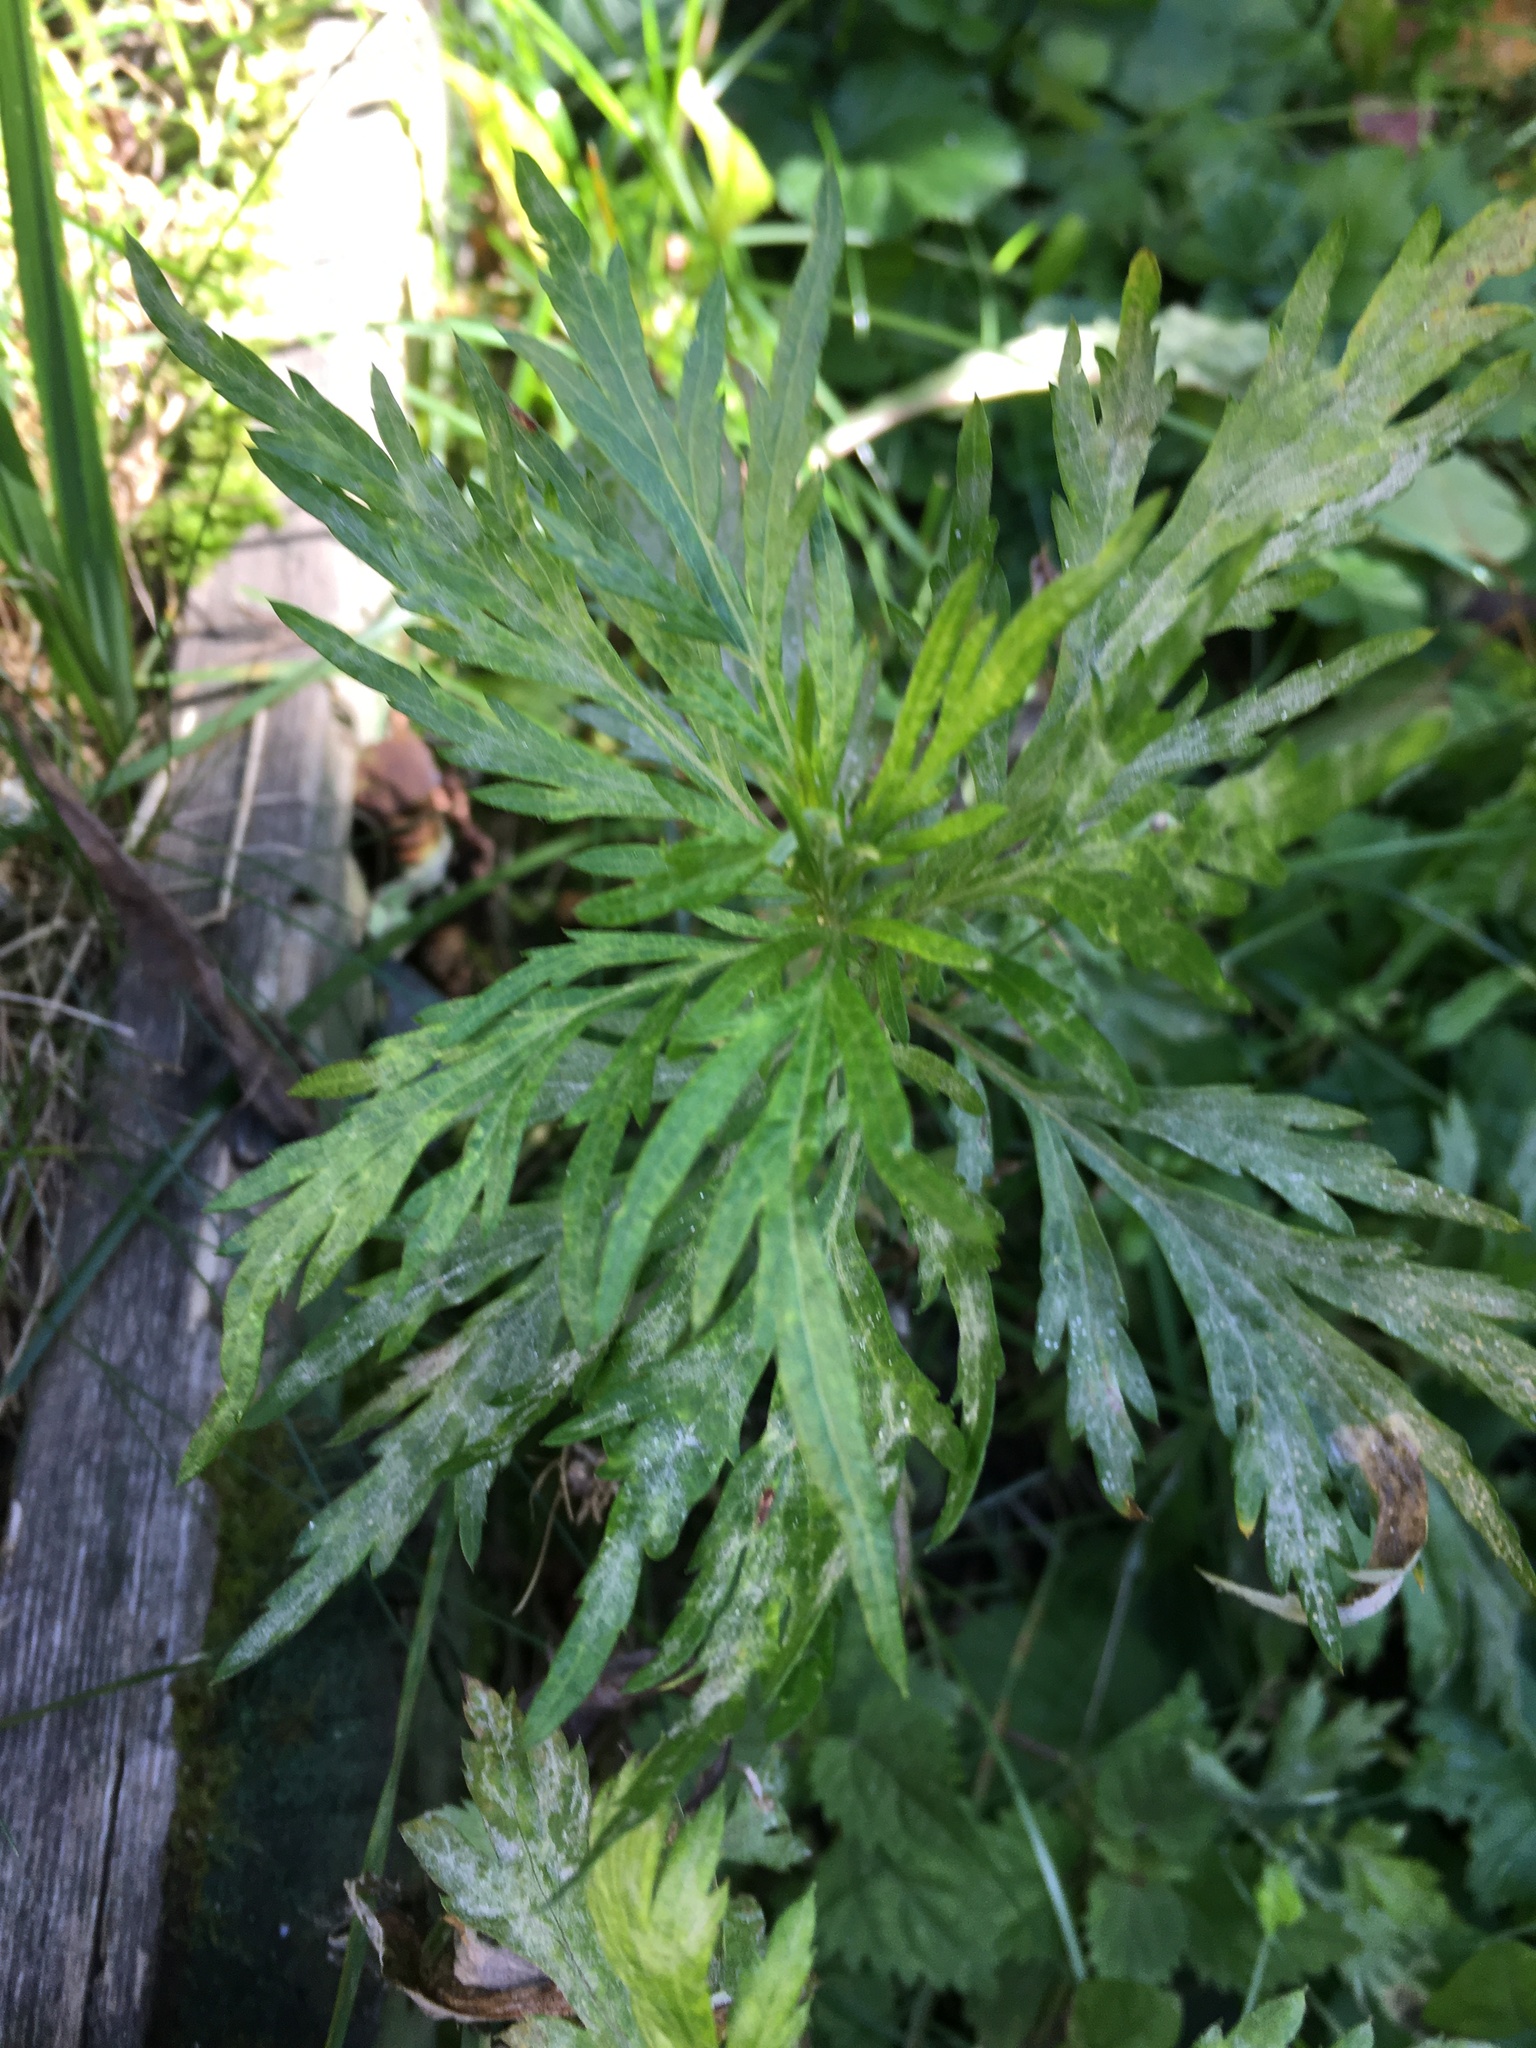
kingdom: Plantae
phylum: Tracheophyta
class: Magnoliopsida
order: Asterales
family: Asteraceae
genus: Artemisia
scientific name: Artemisia vulgaris
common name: Mugwort
